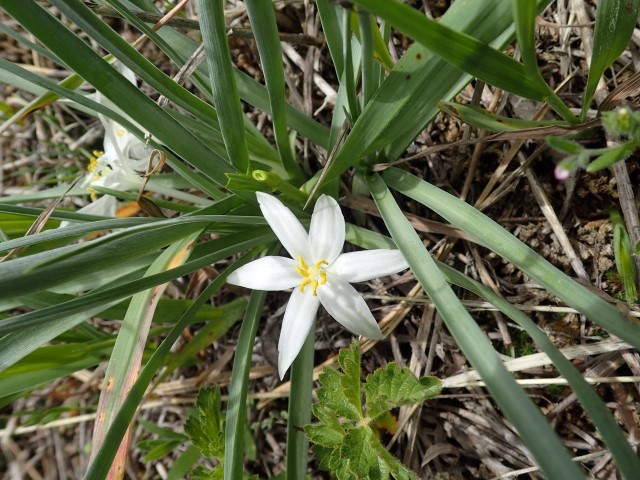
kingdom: Plantae
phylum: Tracheophyta
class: Liliopsida
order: Asparagales
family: Asparagaceae
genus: Leucocrinum
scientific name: Leucocrinum montanum
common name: Mountain-lily
